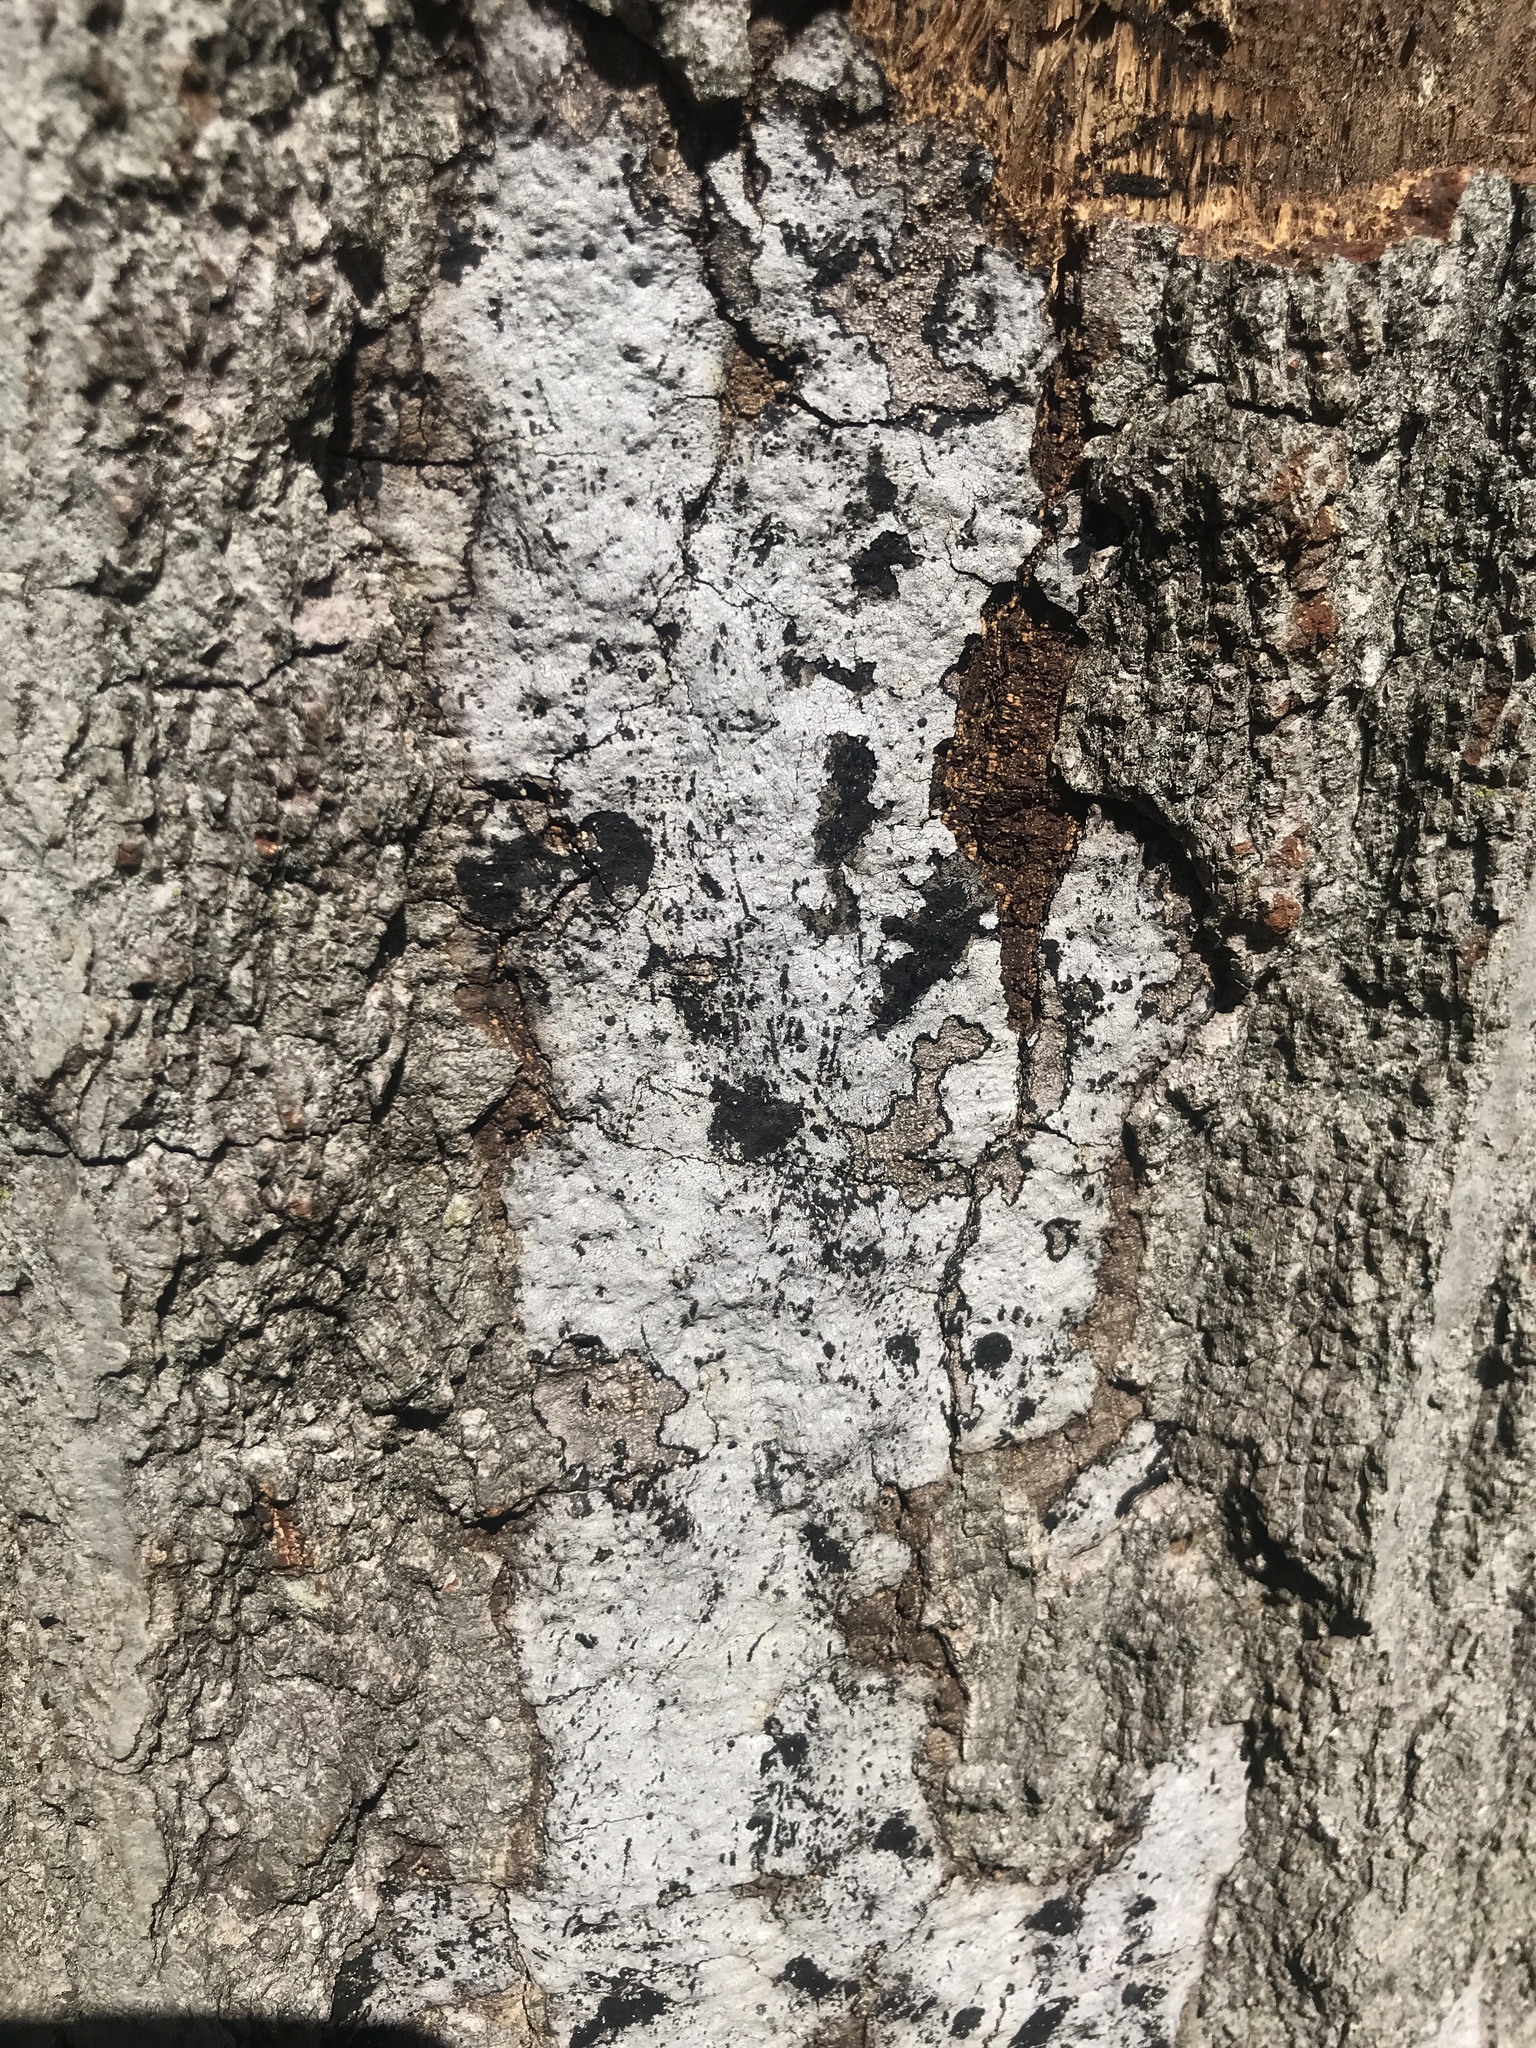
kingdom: Fungi
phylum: Ascomycota
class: Sordariomycetes
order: Xylariales
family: Graphostromataceae
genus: Biscogniauxia
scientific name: Biscogniauxia atropunctata
